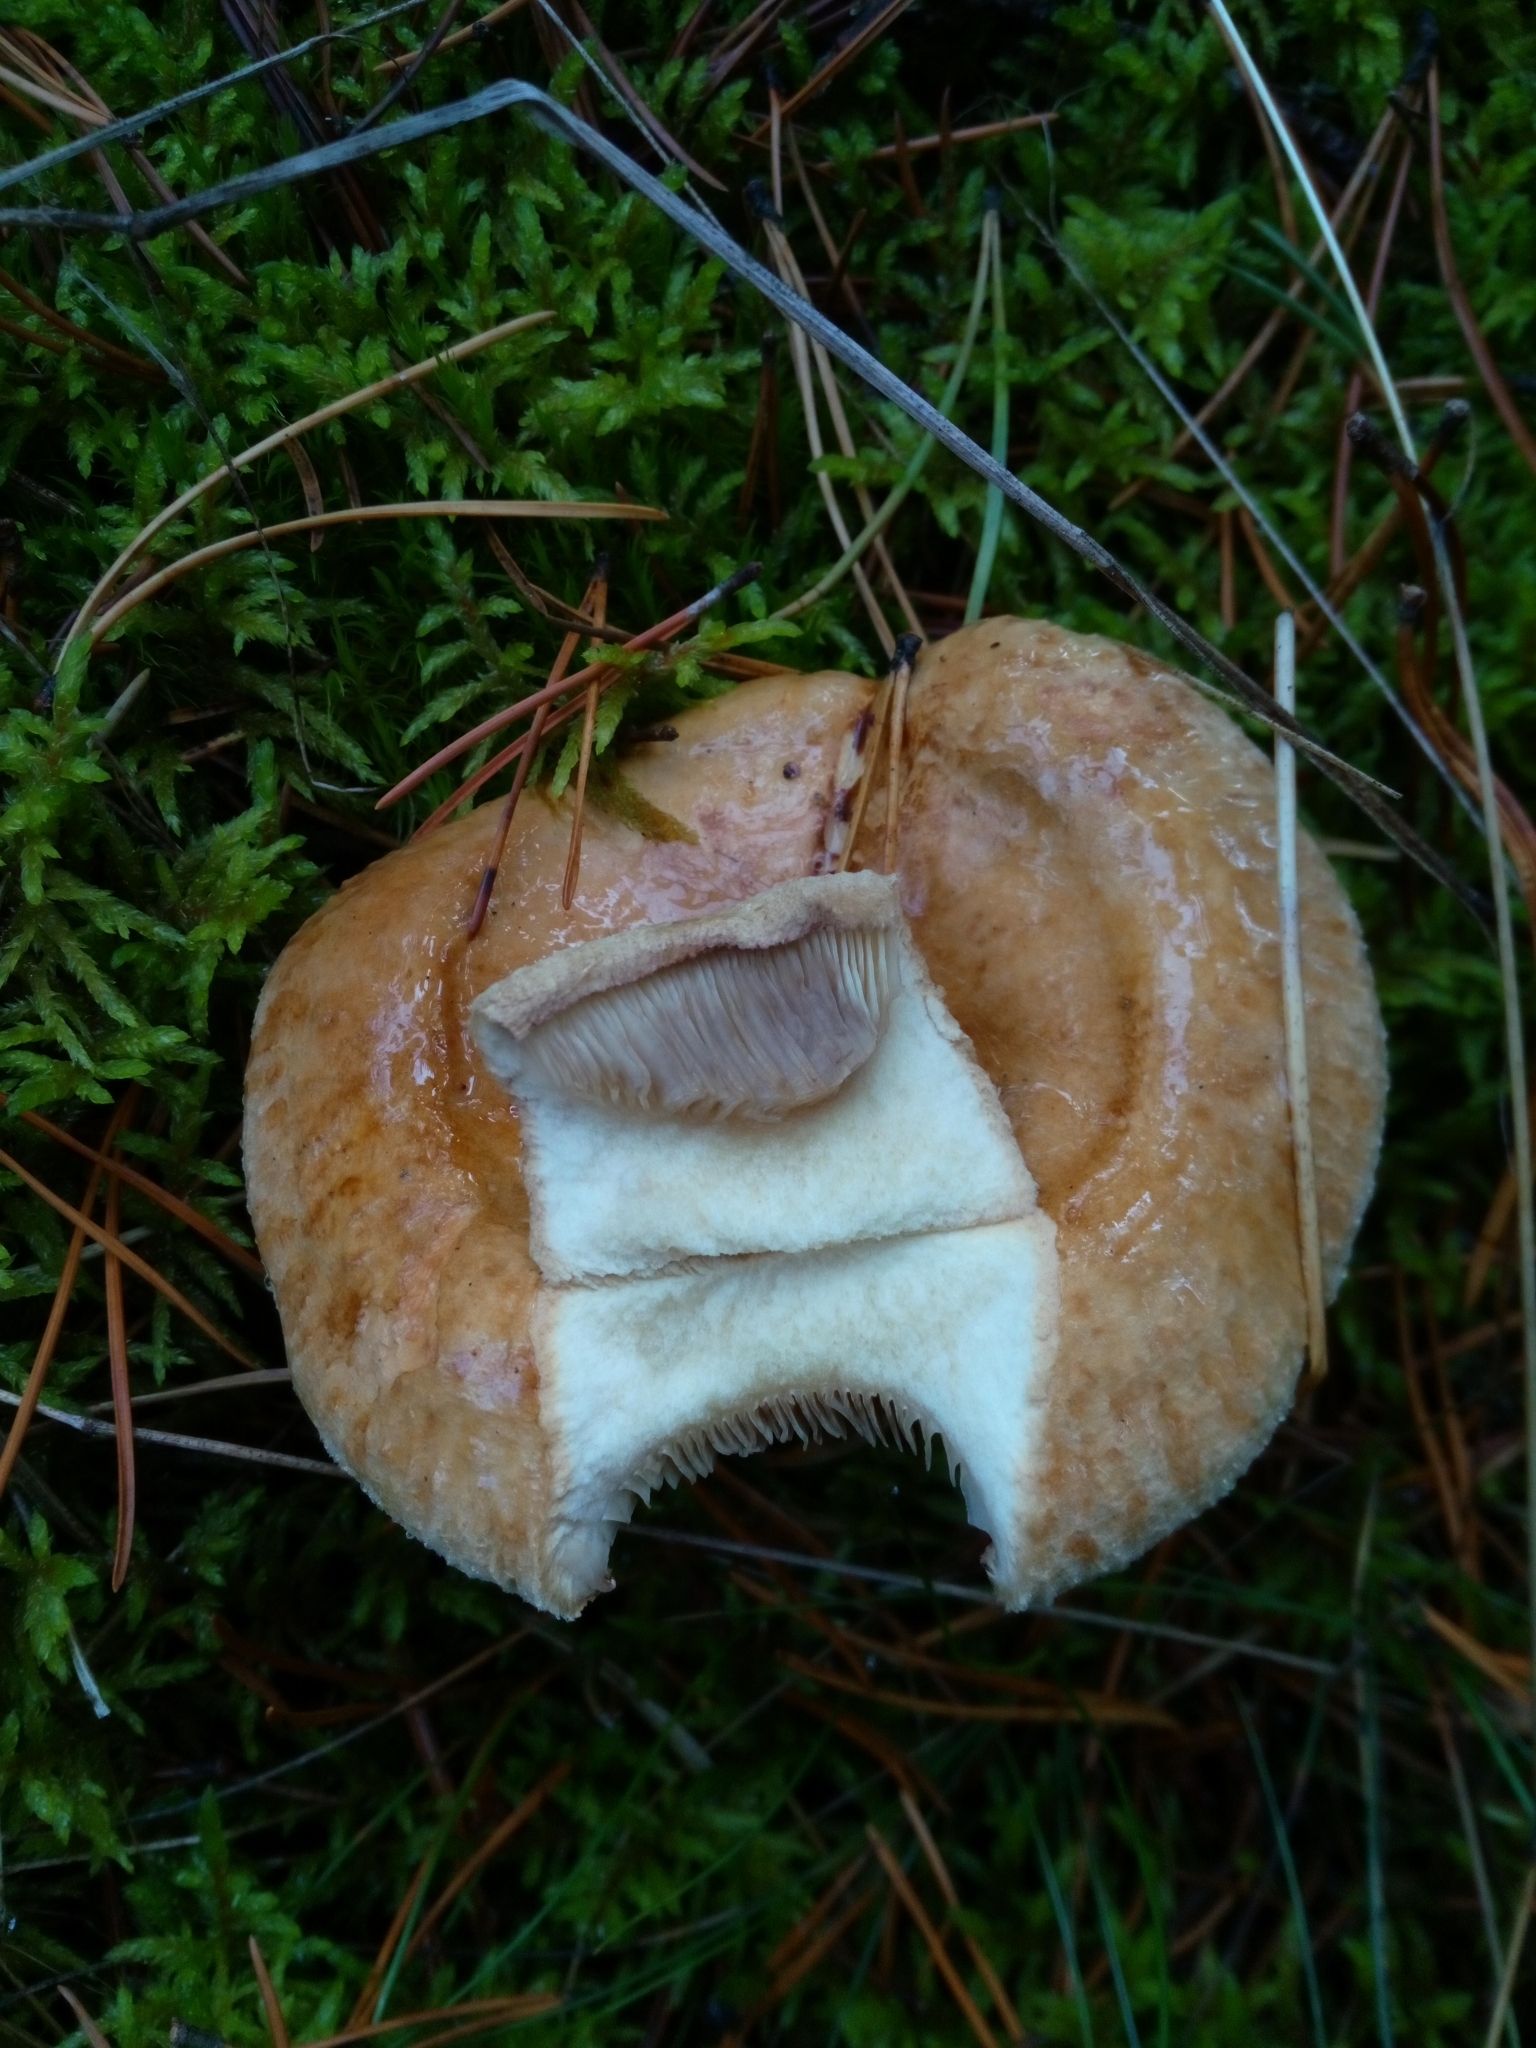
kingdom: Fungi
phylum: Basidiomycota
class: Agaricomycetes
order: Boletales
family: Paxillaceae
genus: Paxillus
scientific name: Paxillus involutus
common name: Brown roll rim
